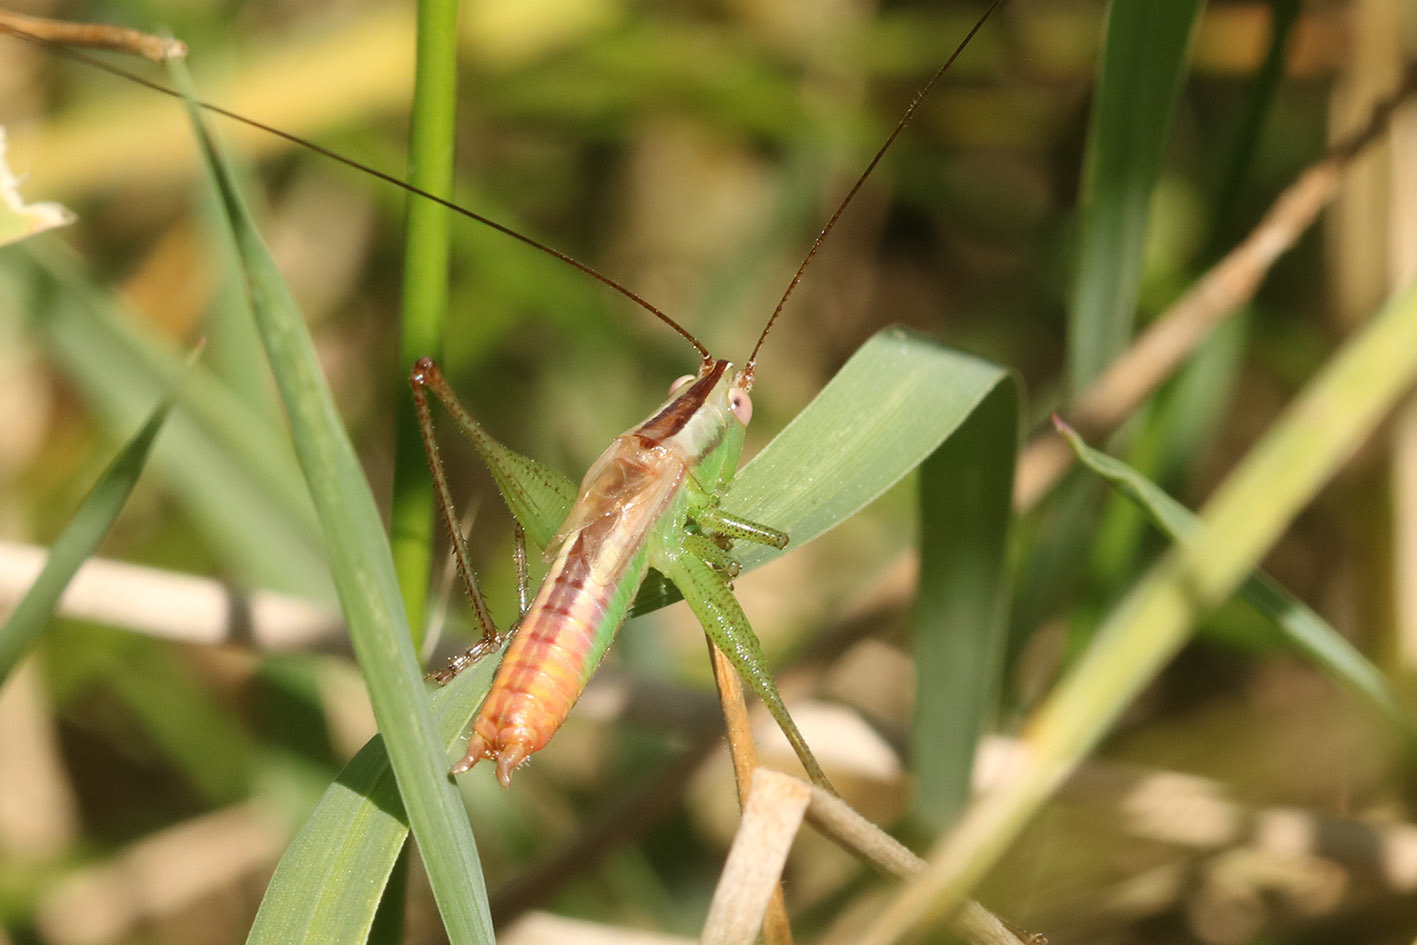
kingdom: Animalia
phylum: Arthropoda
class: Insecta
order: Orthoptera
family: Tettigoniidae
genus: Conocephalus
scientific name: Conocephalus doryphorus
